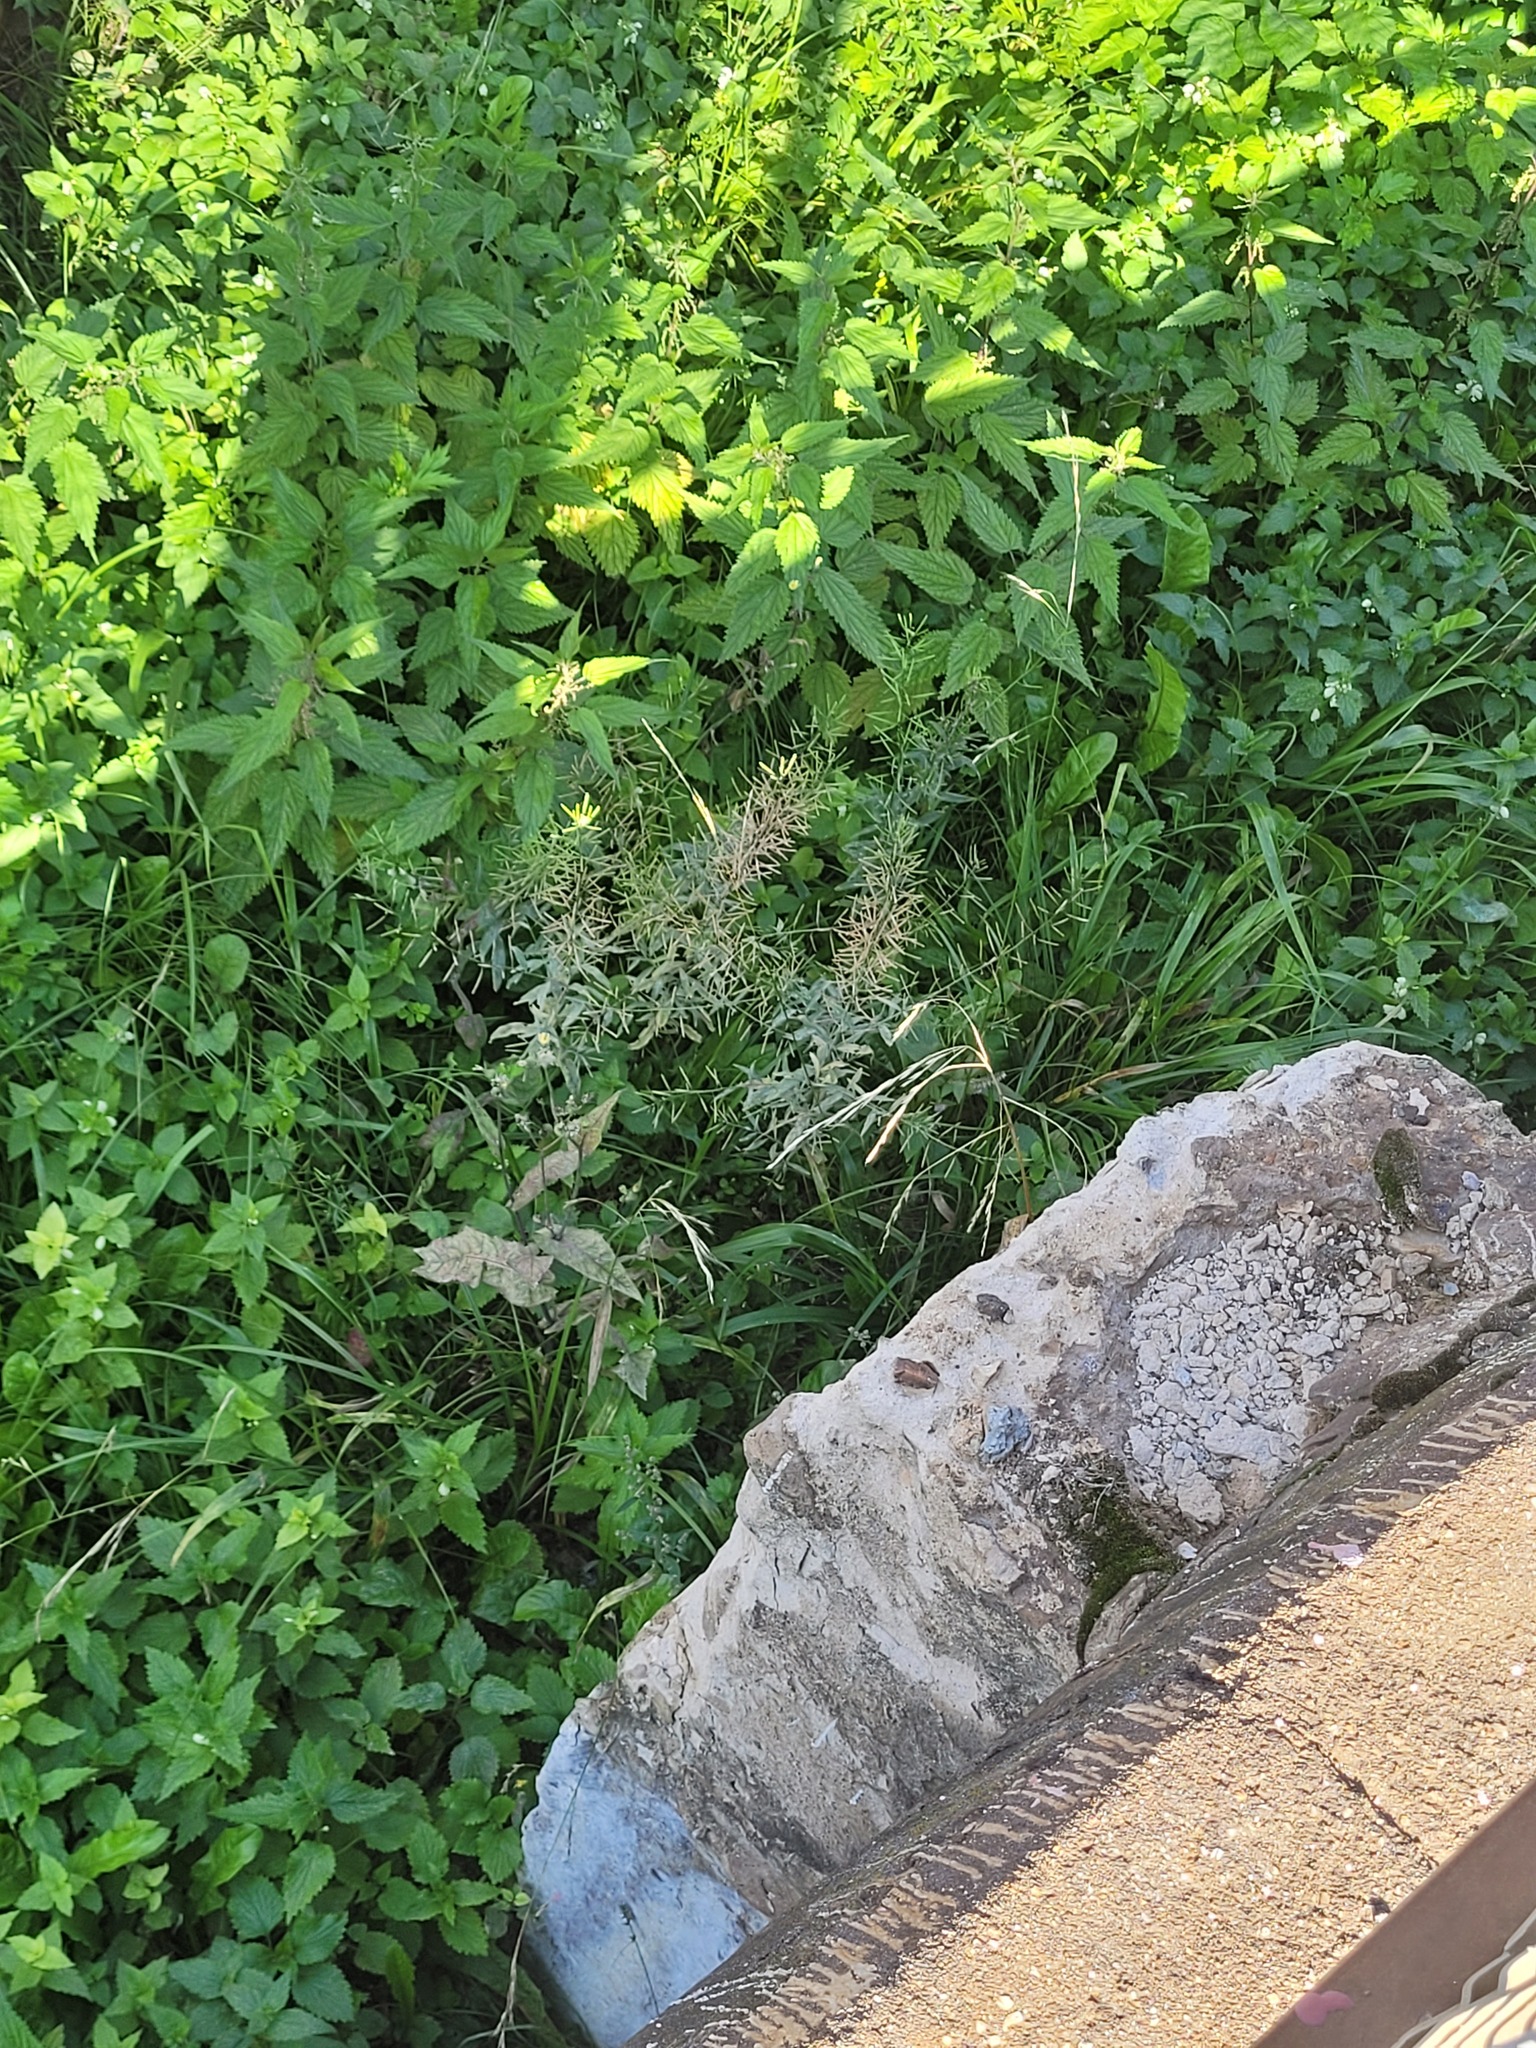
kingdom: Plantae
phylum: Tracheophyta
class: Magnoliopsida
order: Brassicales
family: Brassicaceae
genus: Erysimum
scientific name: Erysimum cheiranthoides
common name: Treacle mustard
